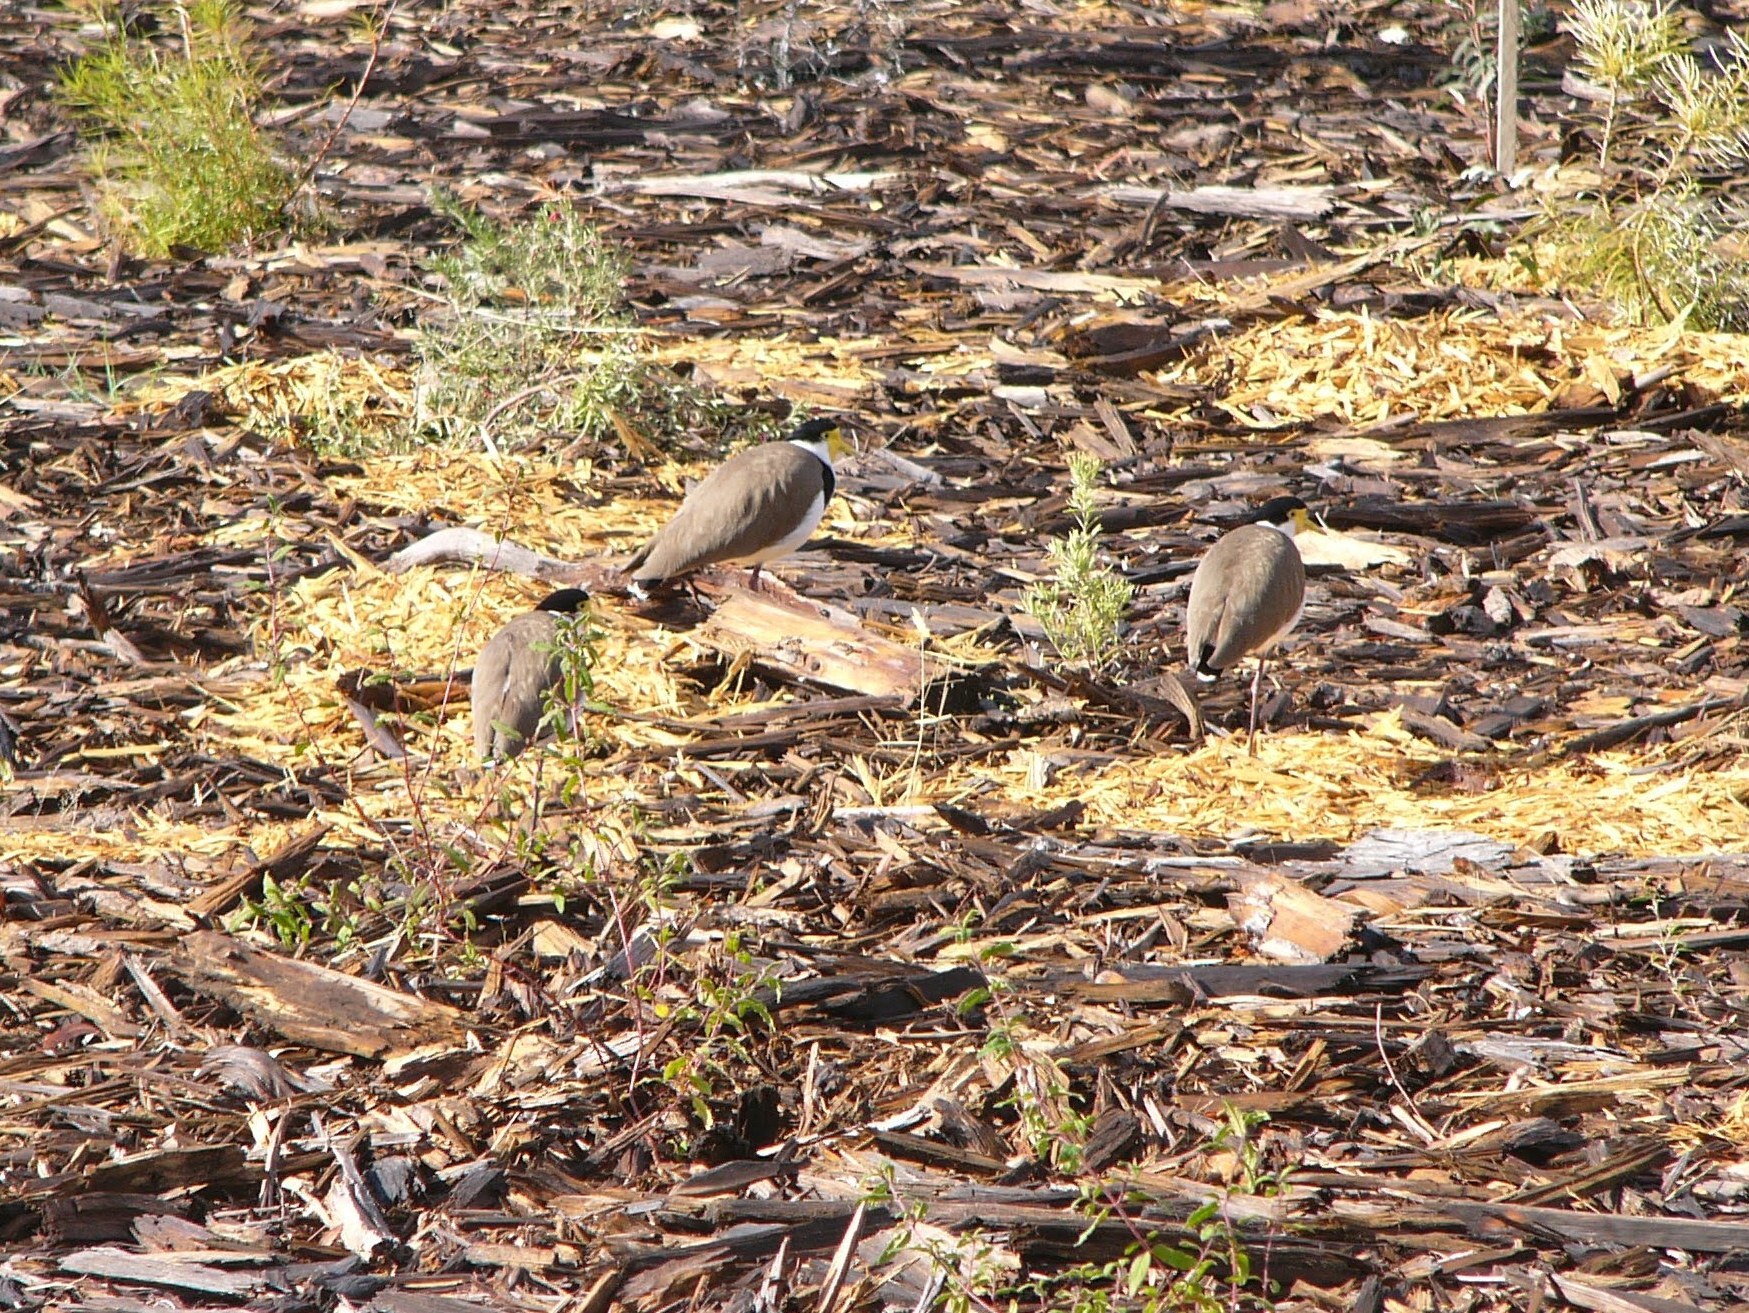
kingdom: Animalia
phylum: Chordata
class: Aves
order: Charadriiformes
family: Charadriidae
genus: Vanellus
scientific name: Vanellus miles
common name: Masked lapwing
